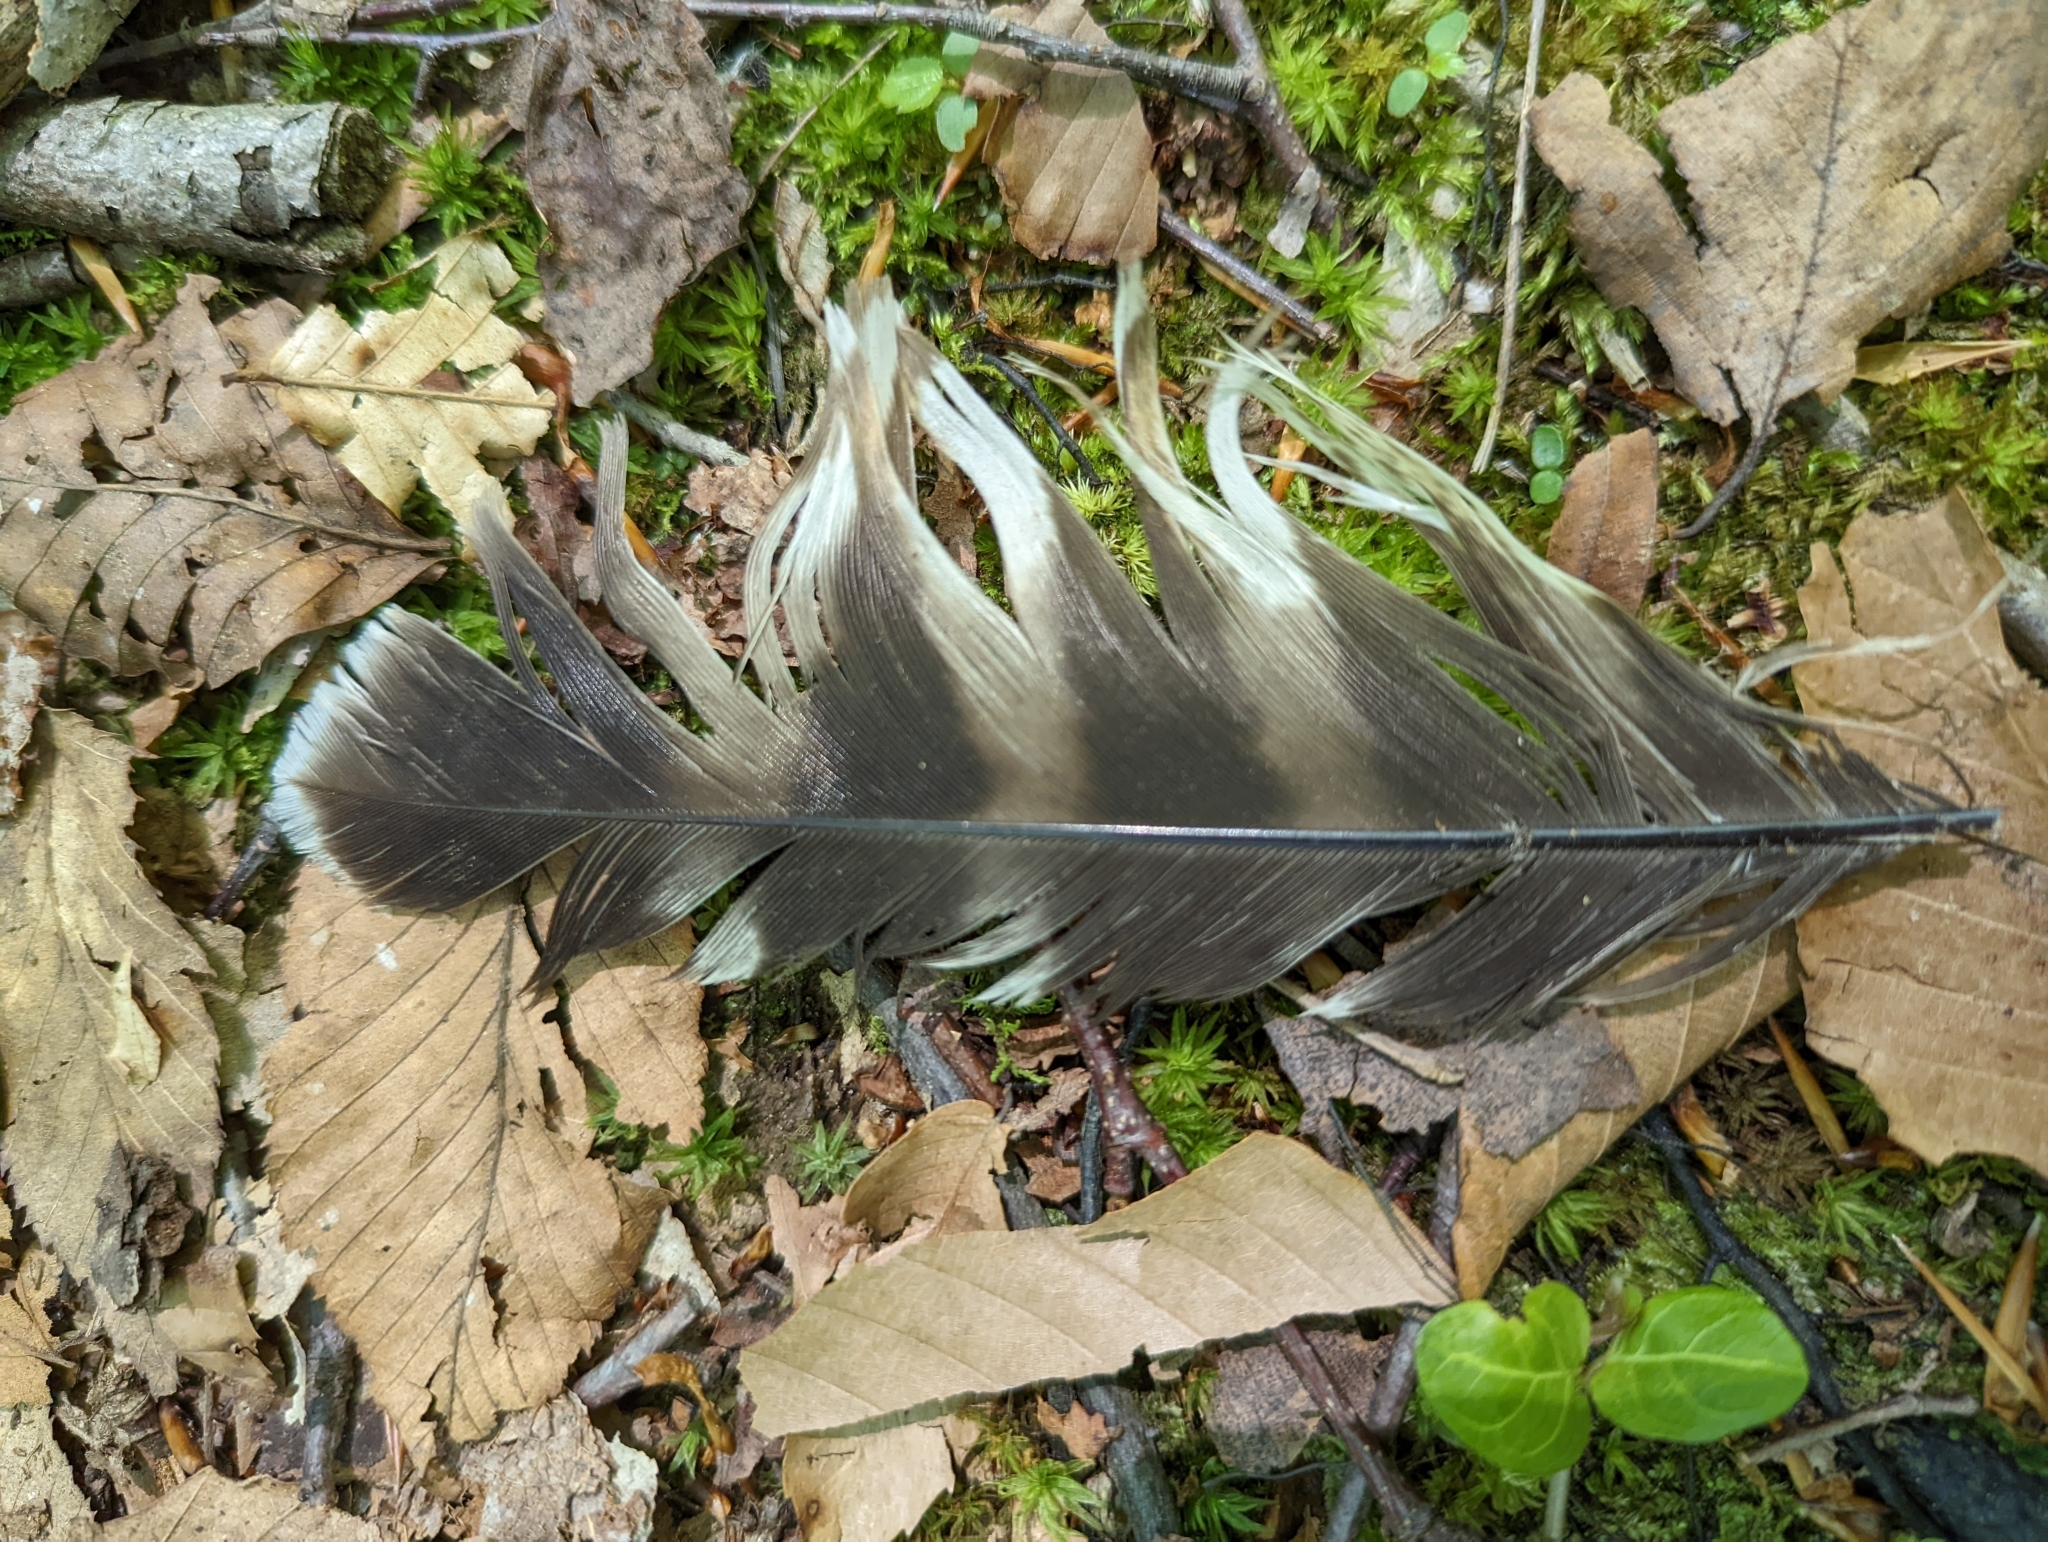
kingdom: Animalia
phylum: Chordata
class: Aves
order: Accipitriformes
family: Accipitridae
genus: Buteo
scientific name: Buteo lineatus
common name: Red-shouldered hawk
